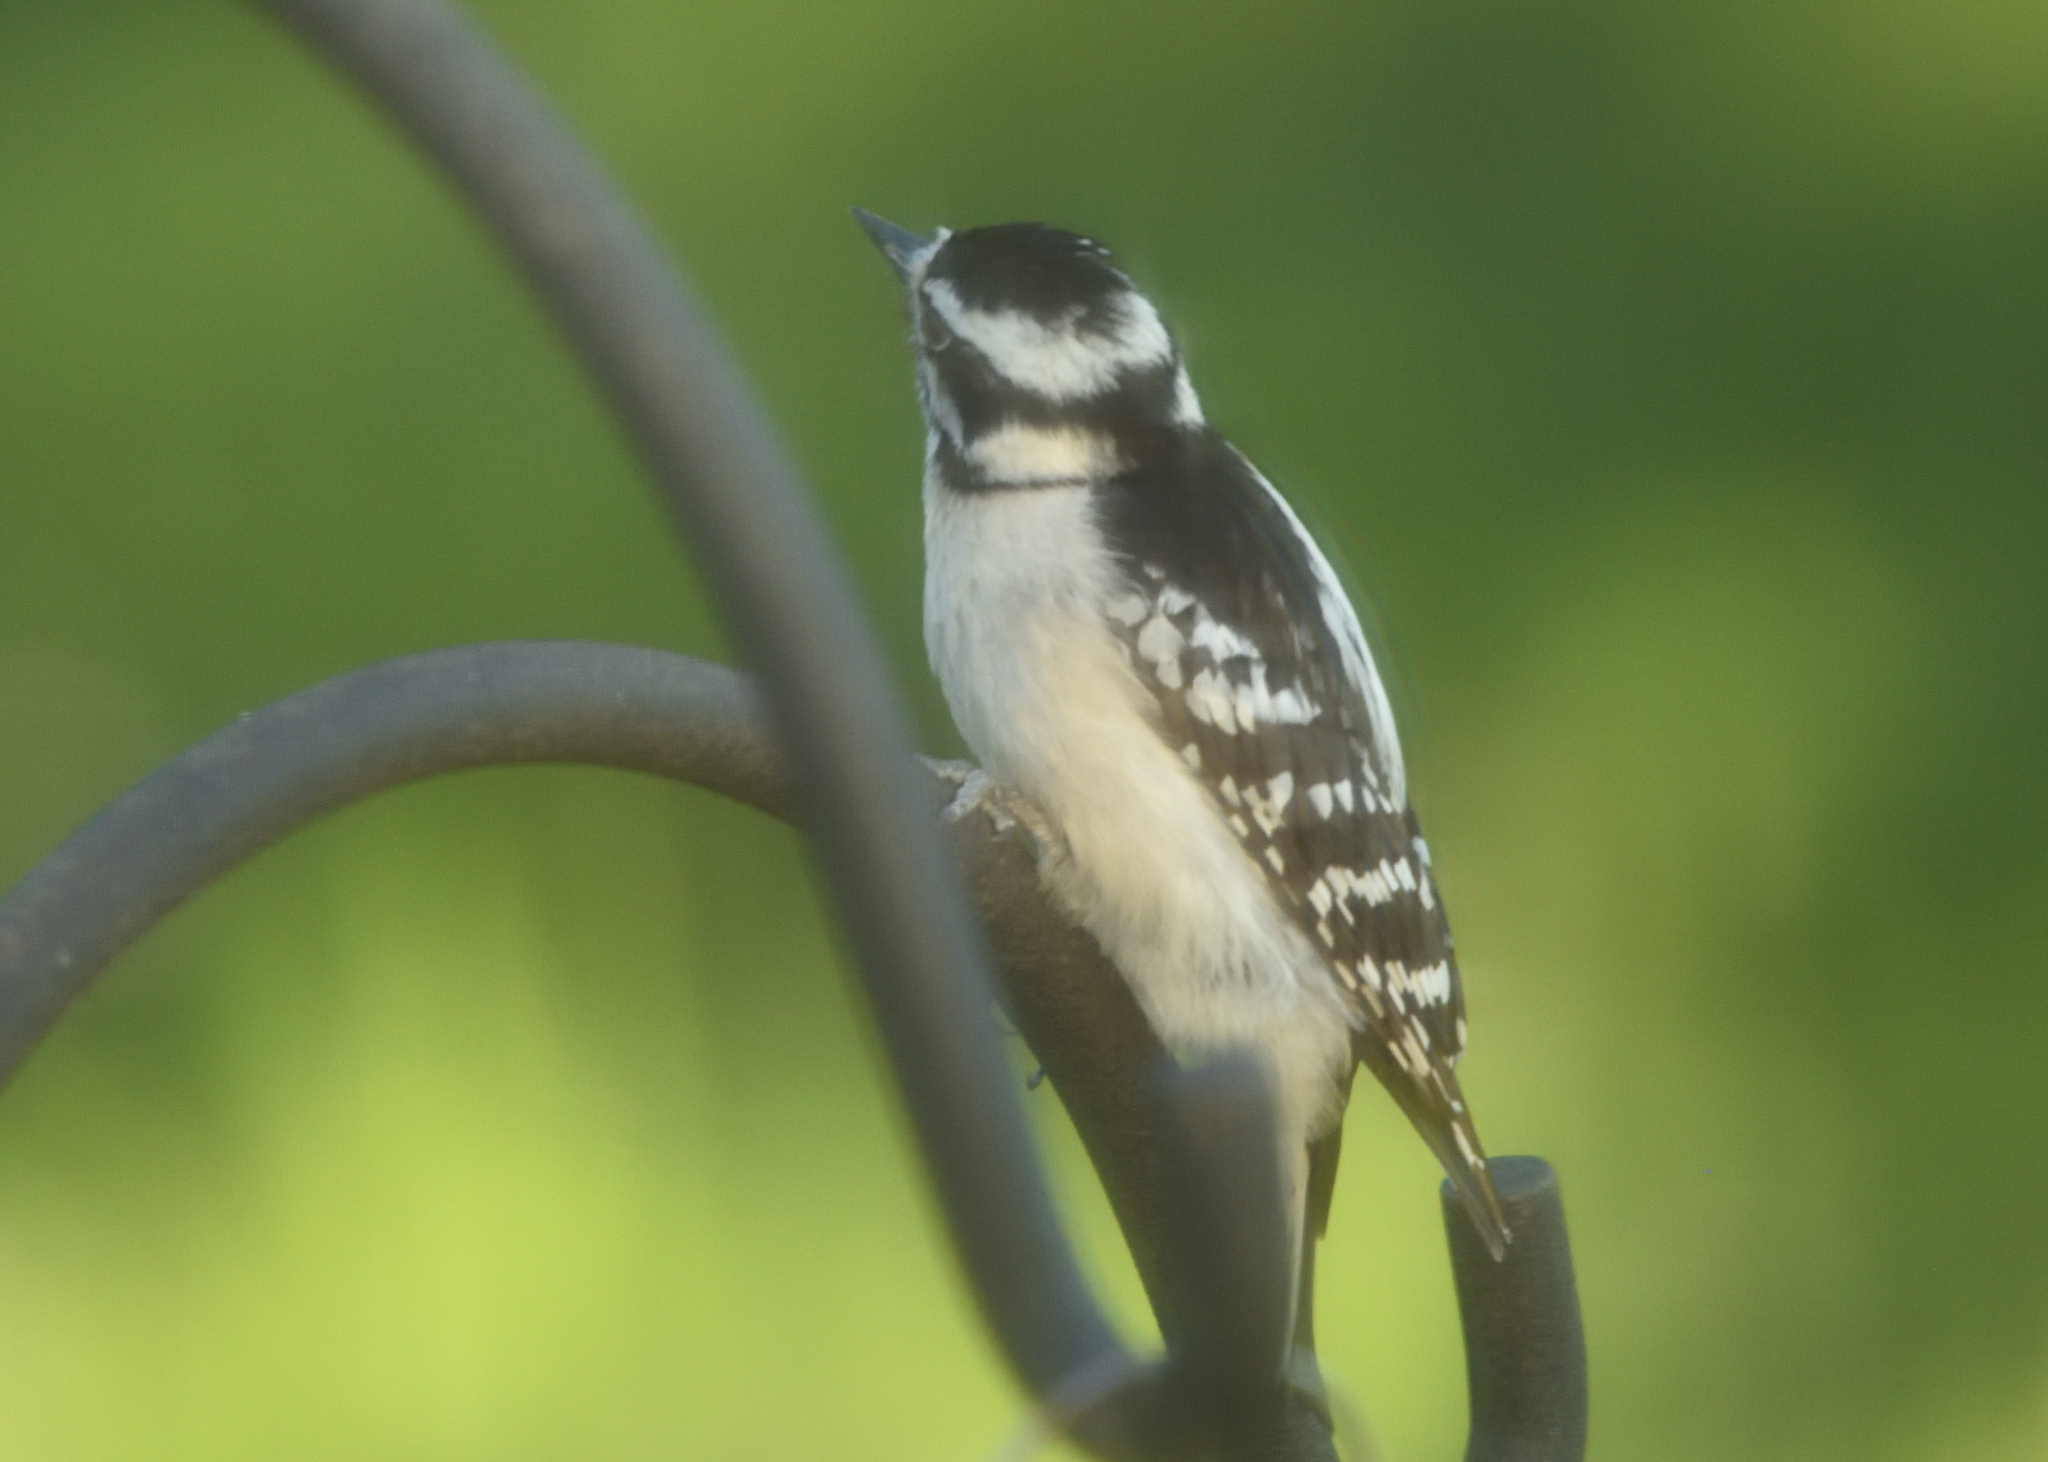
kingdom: Animalia
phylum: Chordata
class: Aves
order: Piciformes
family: Picidae
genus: Dryobates
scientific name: Dryobates pubescens
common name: Downy woodpecker
